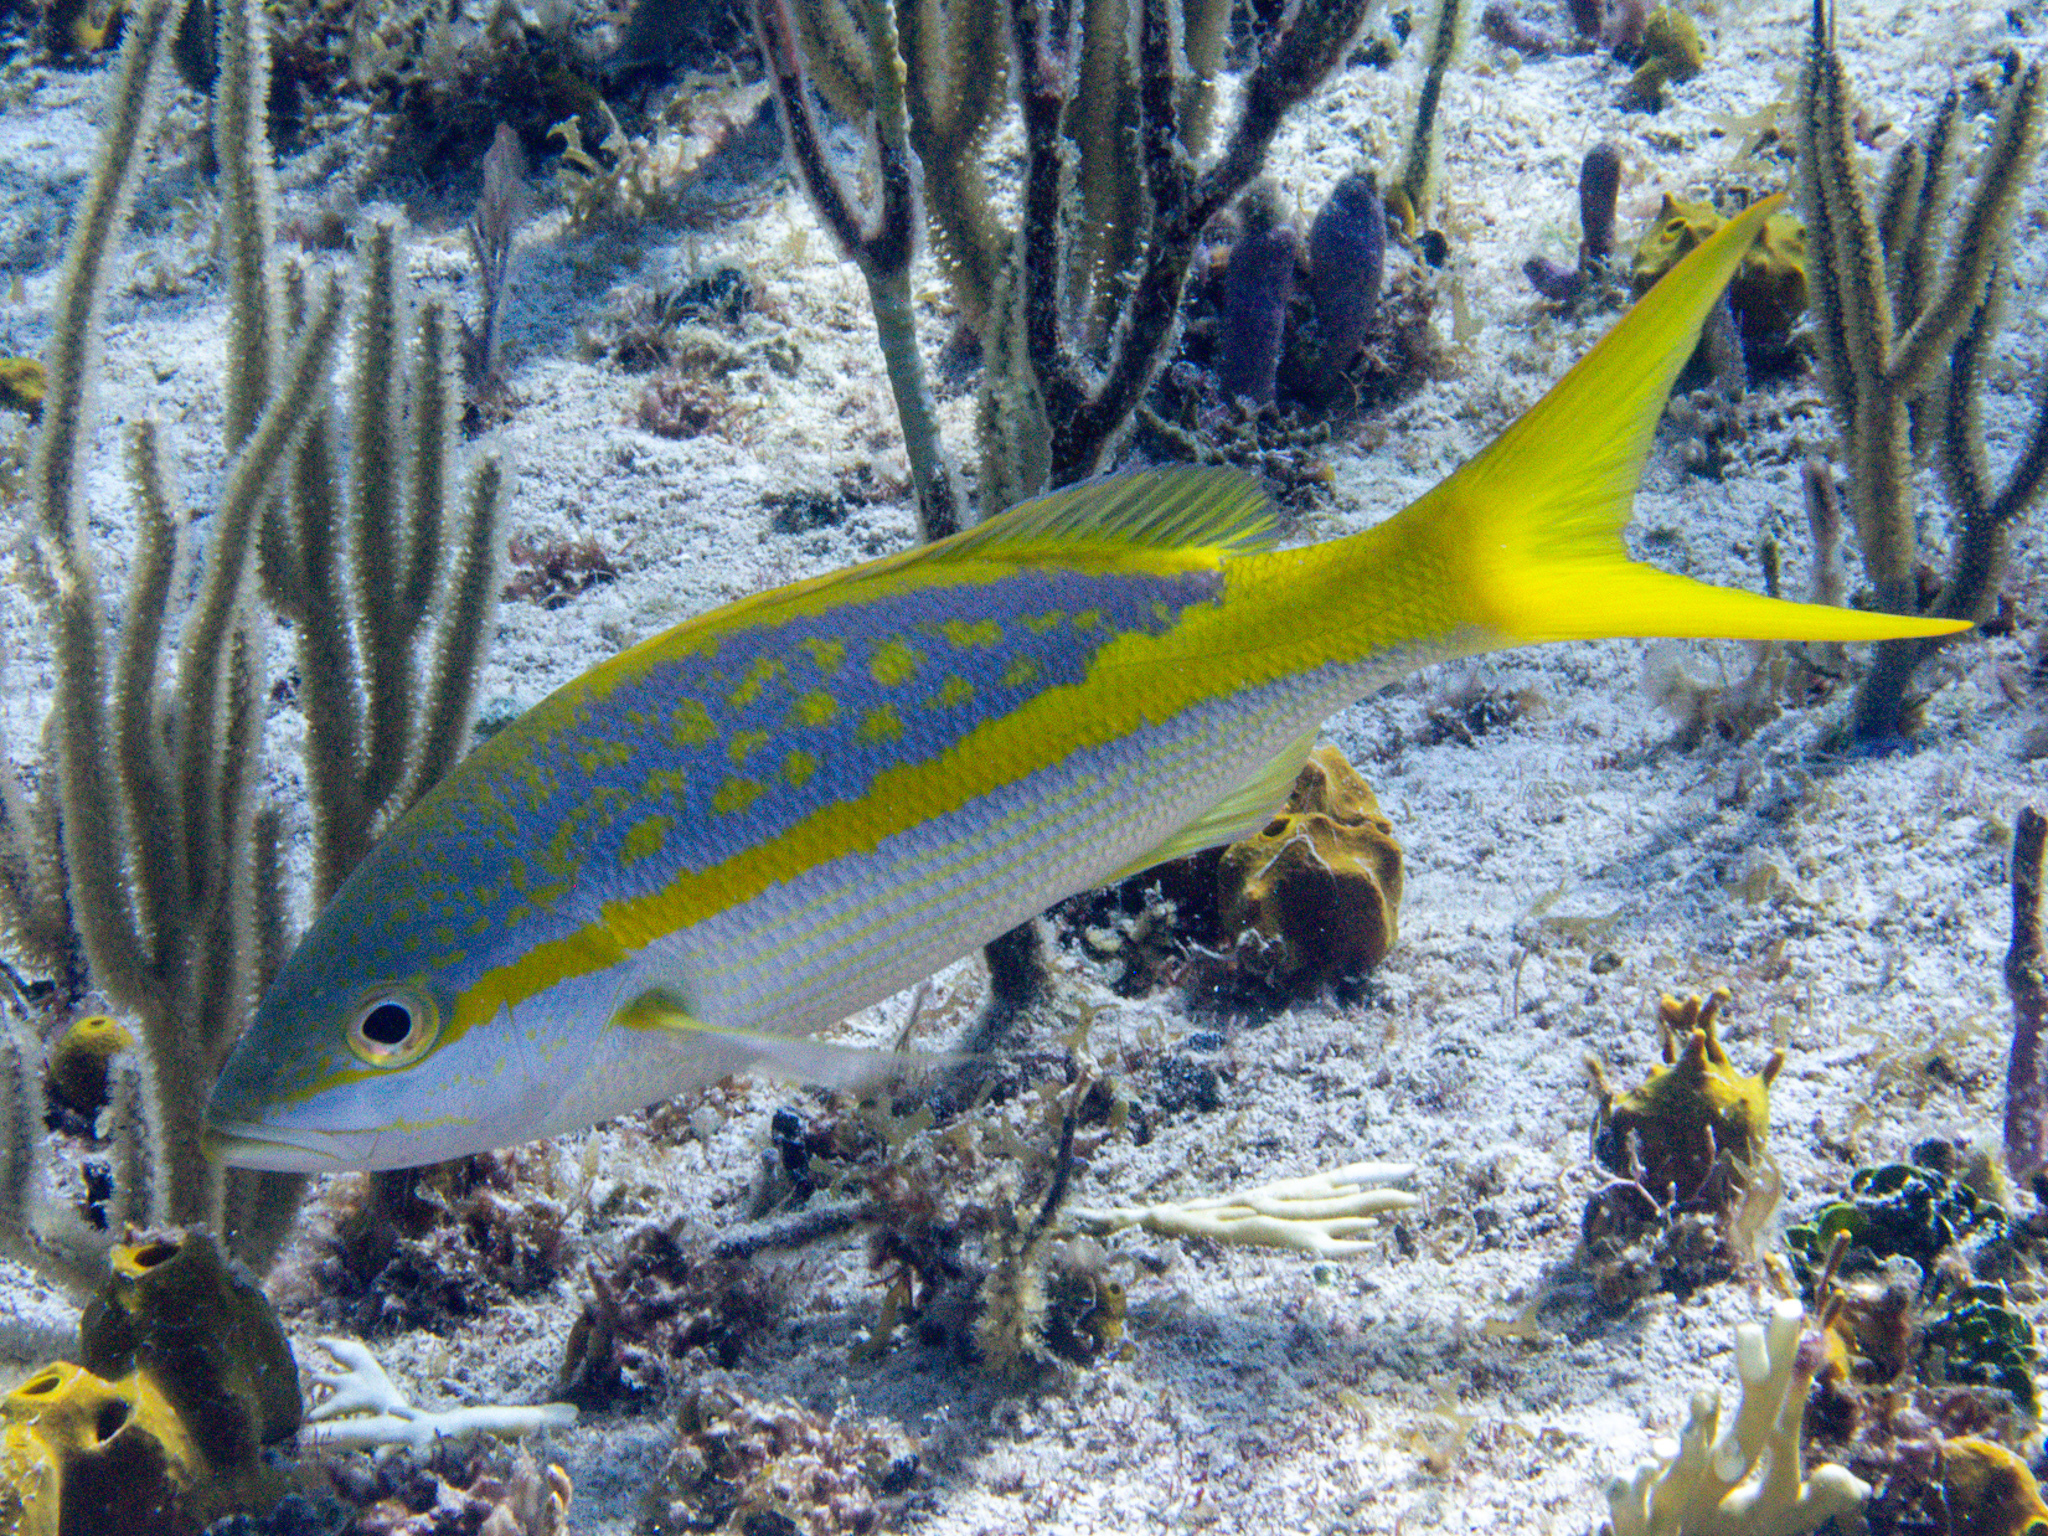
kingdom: Animalia
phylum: Chordata
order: Perciformes
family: Lutjanidae
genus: Ocyurus
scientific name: Ocyurus chrysurus
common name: Yellowtail snapper
